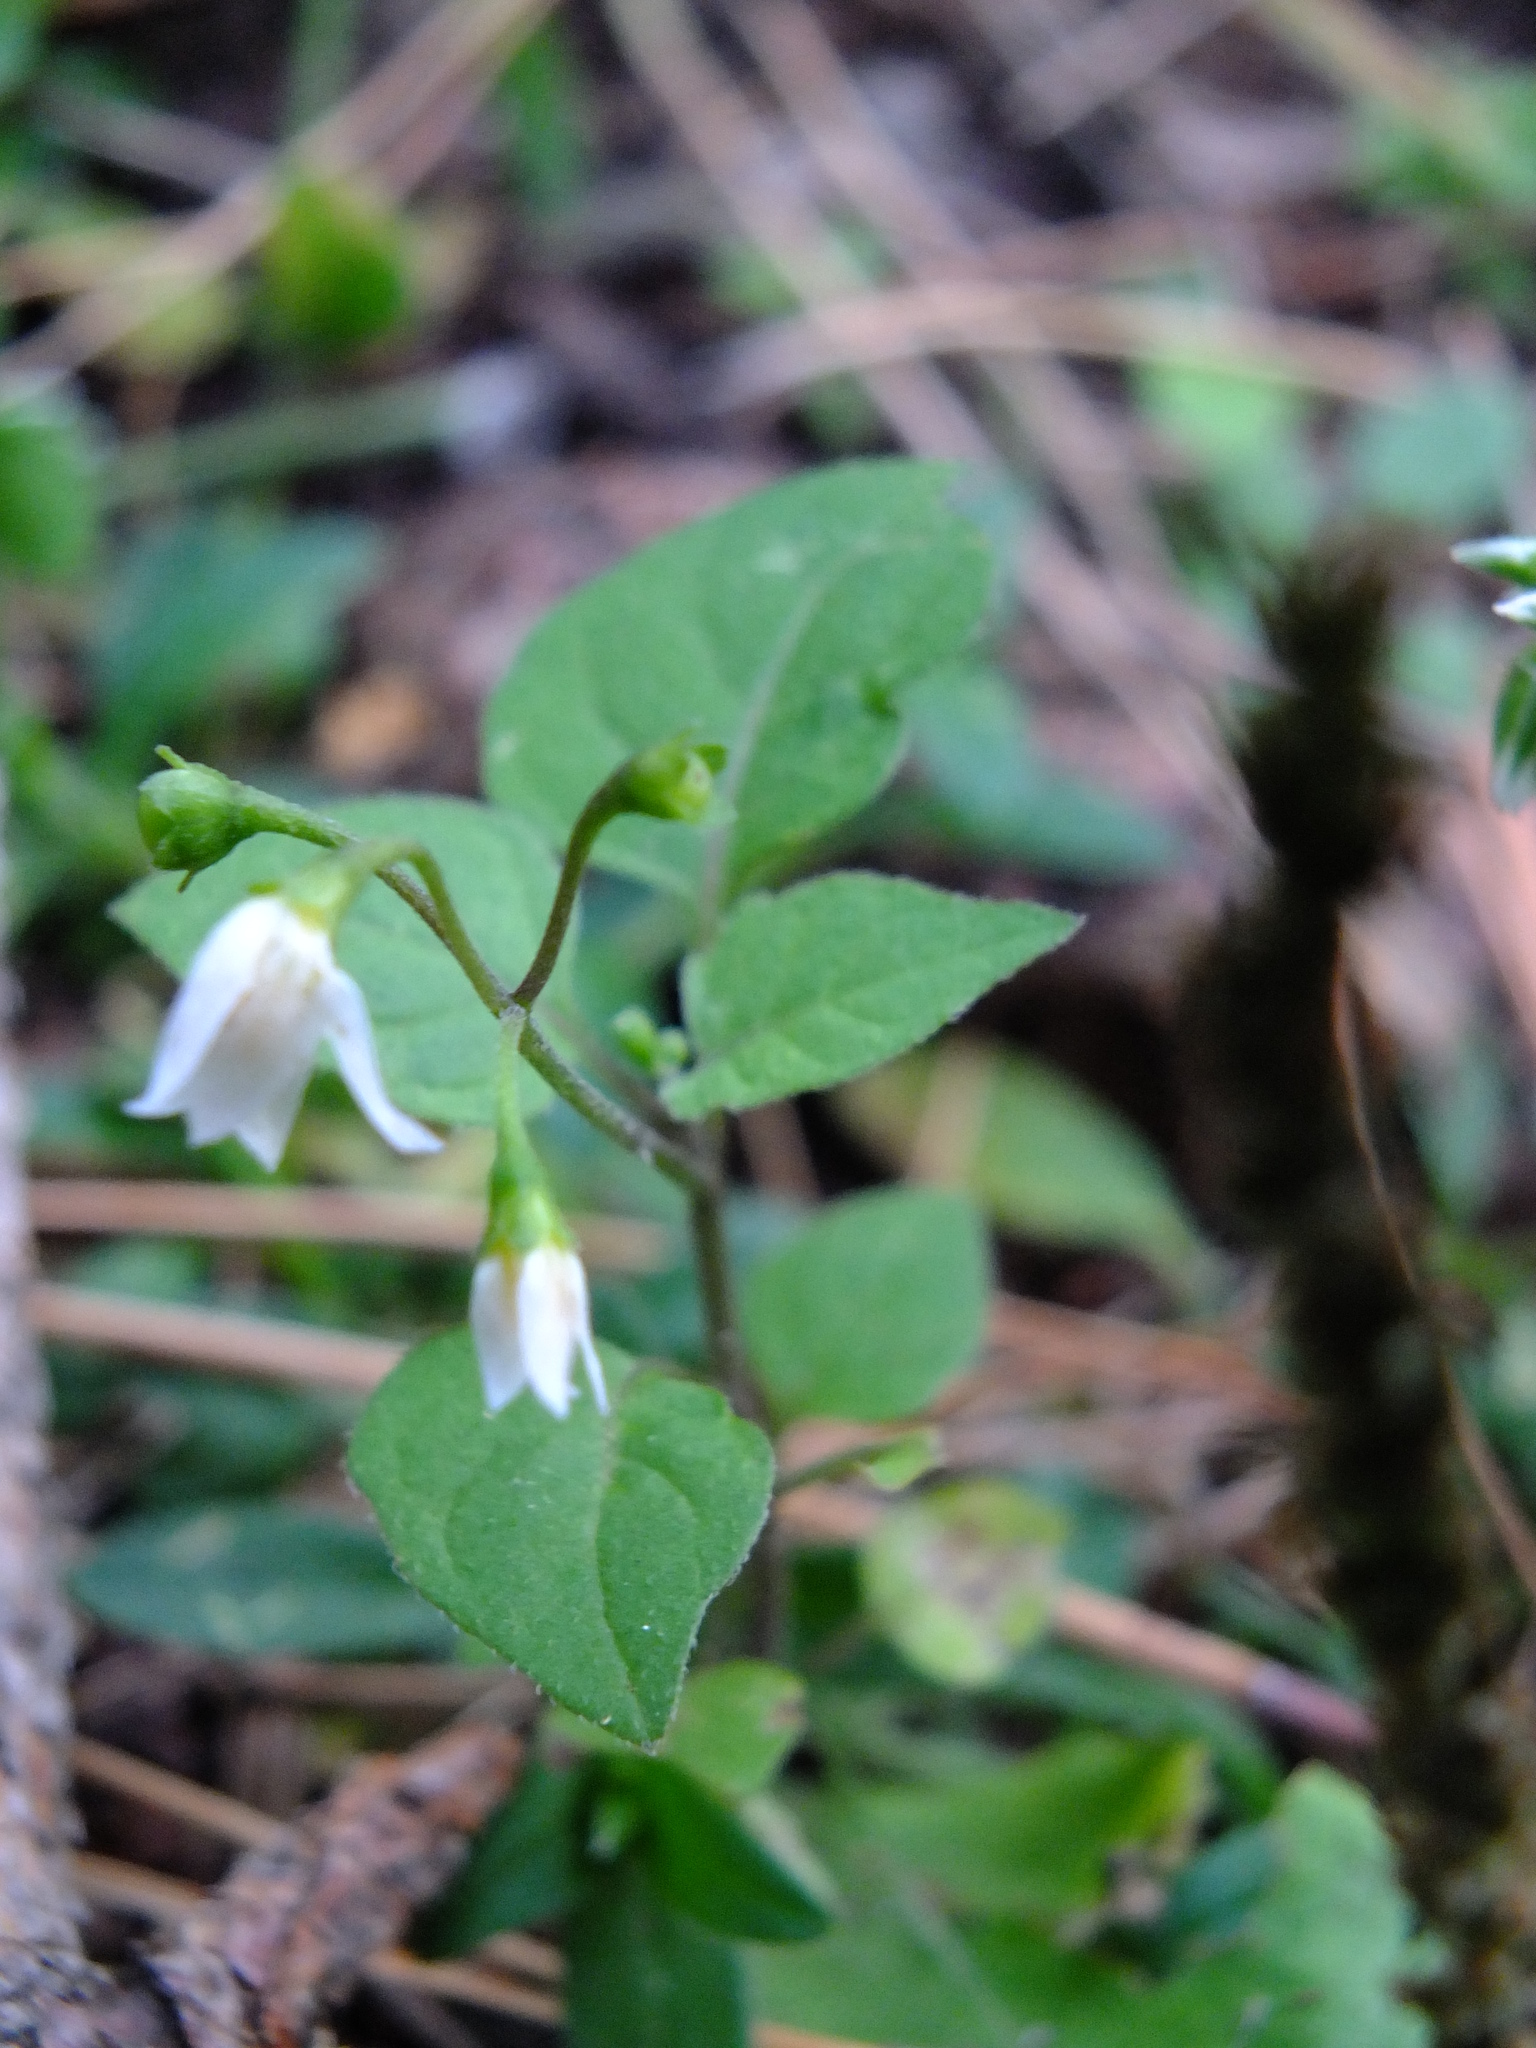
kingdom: Plantae
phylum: Tracheophyta
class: Magnoliopsida
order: Solanales
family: Solanaceae
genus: Solanum
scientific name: Solanum nigrum
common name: Black nightshade
